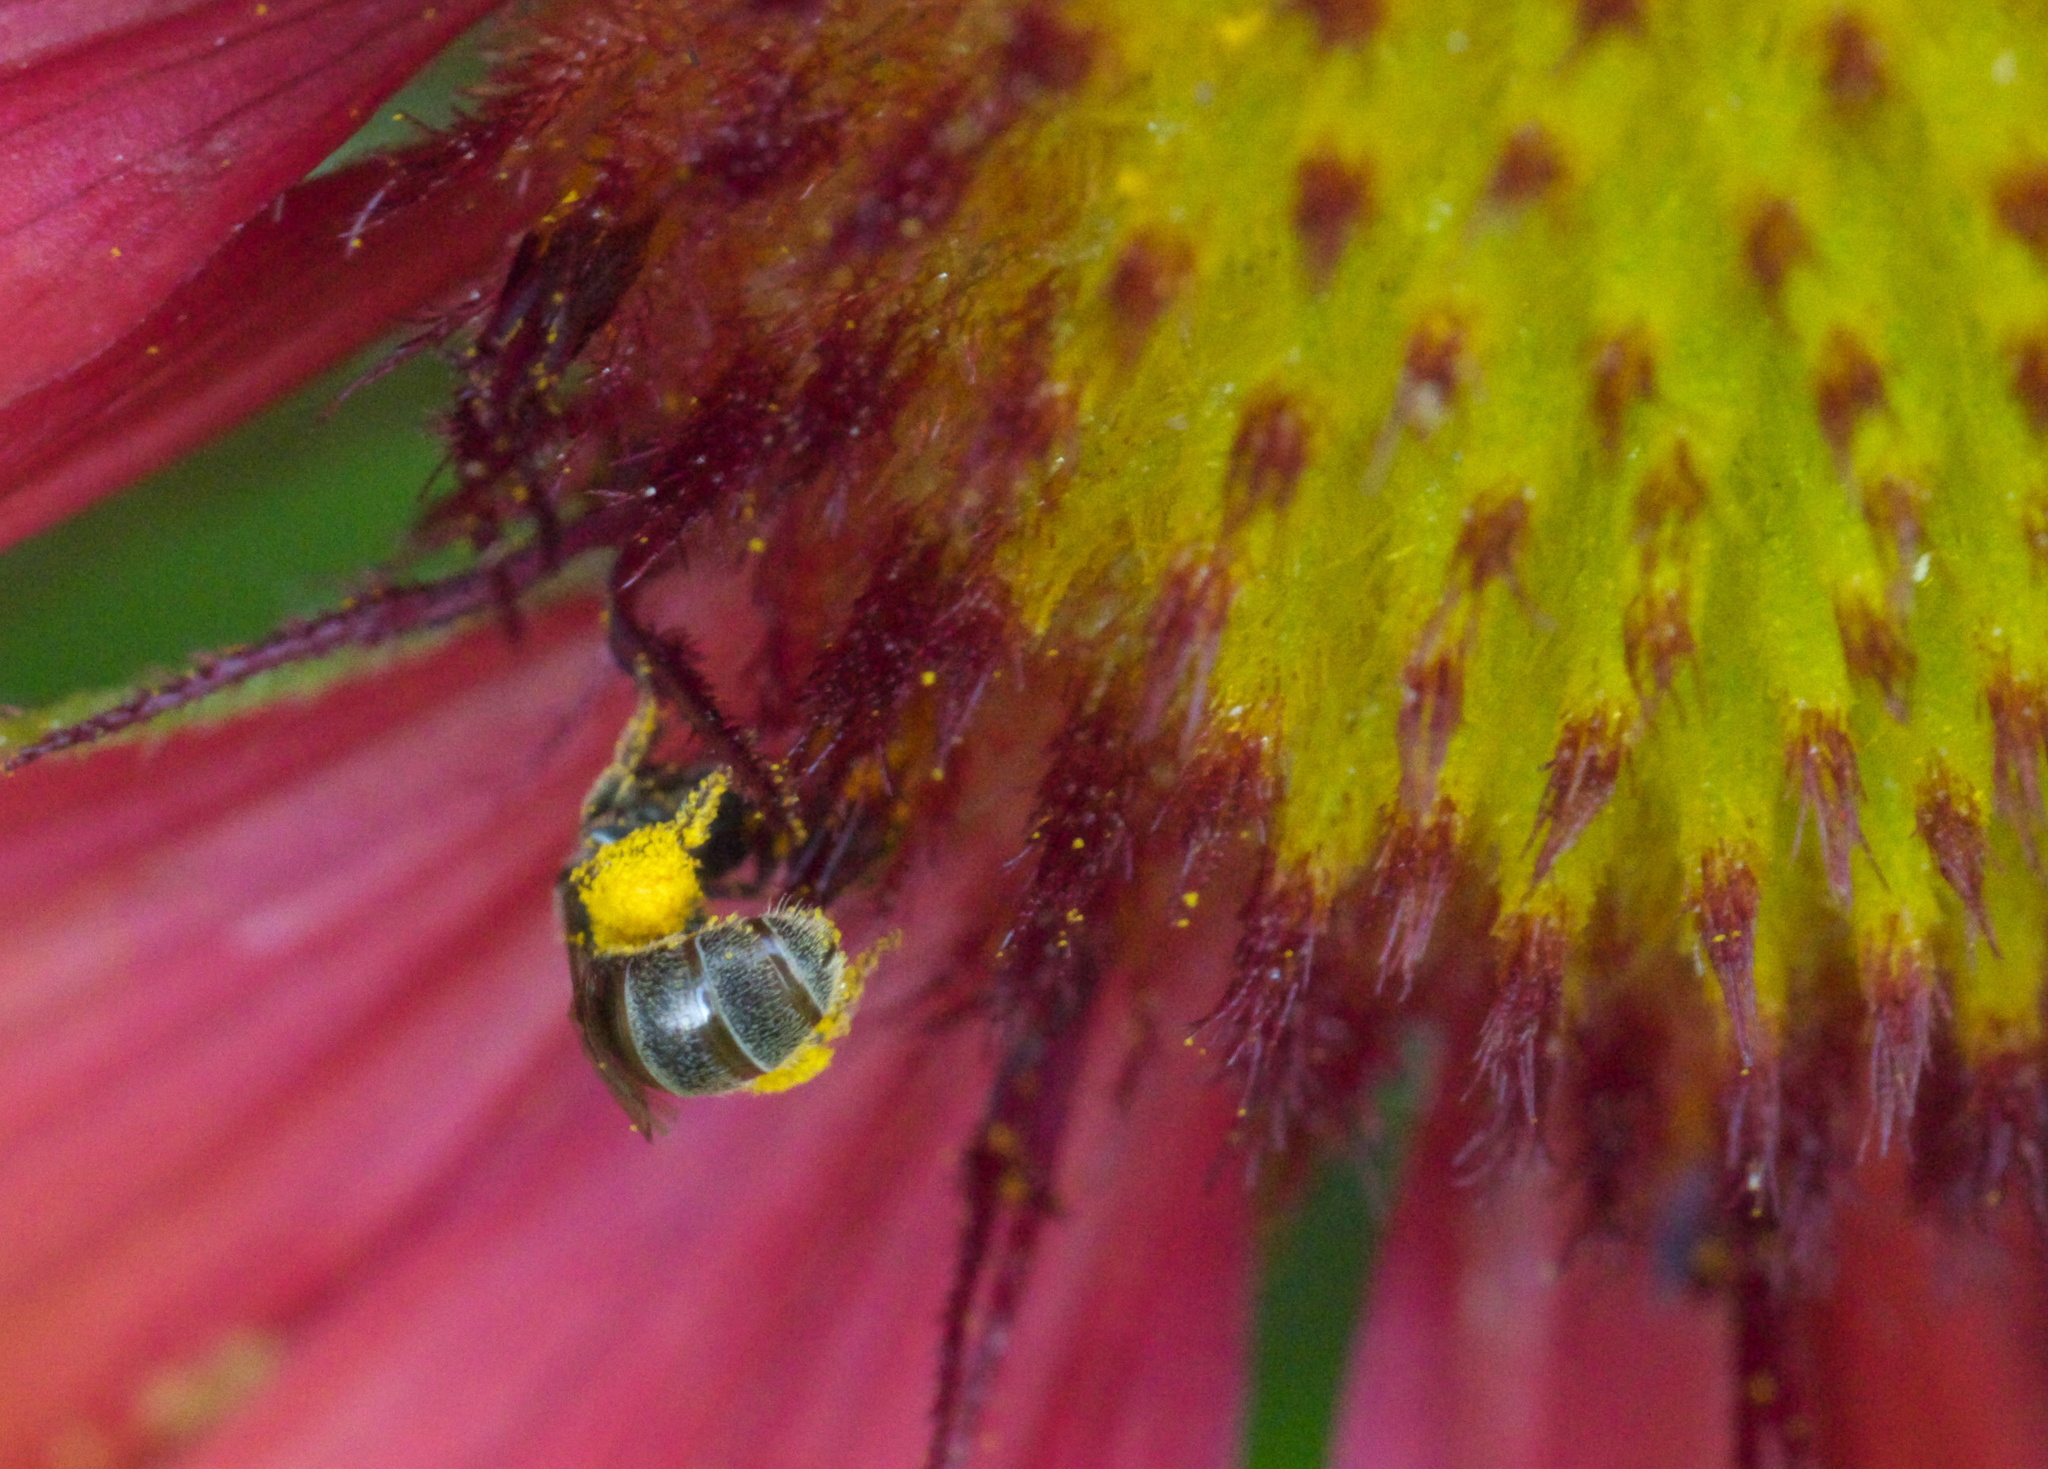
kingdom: Animalia
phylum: Arthropoda
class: Insecta
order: Hymenoptera
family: Halictidae
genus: Lasioglossum
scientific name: Lasioglossum imitatum
